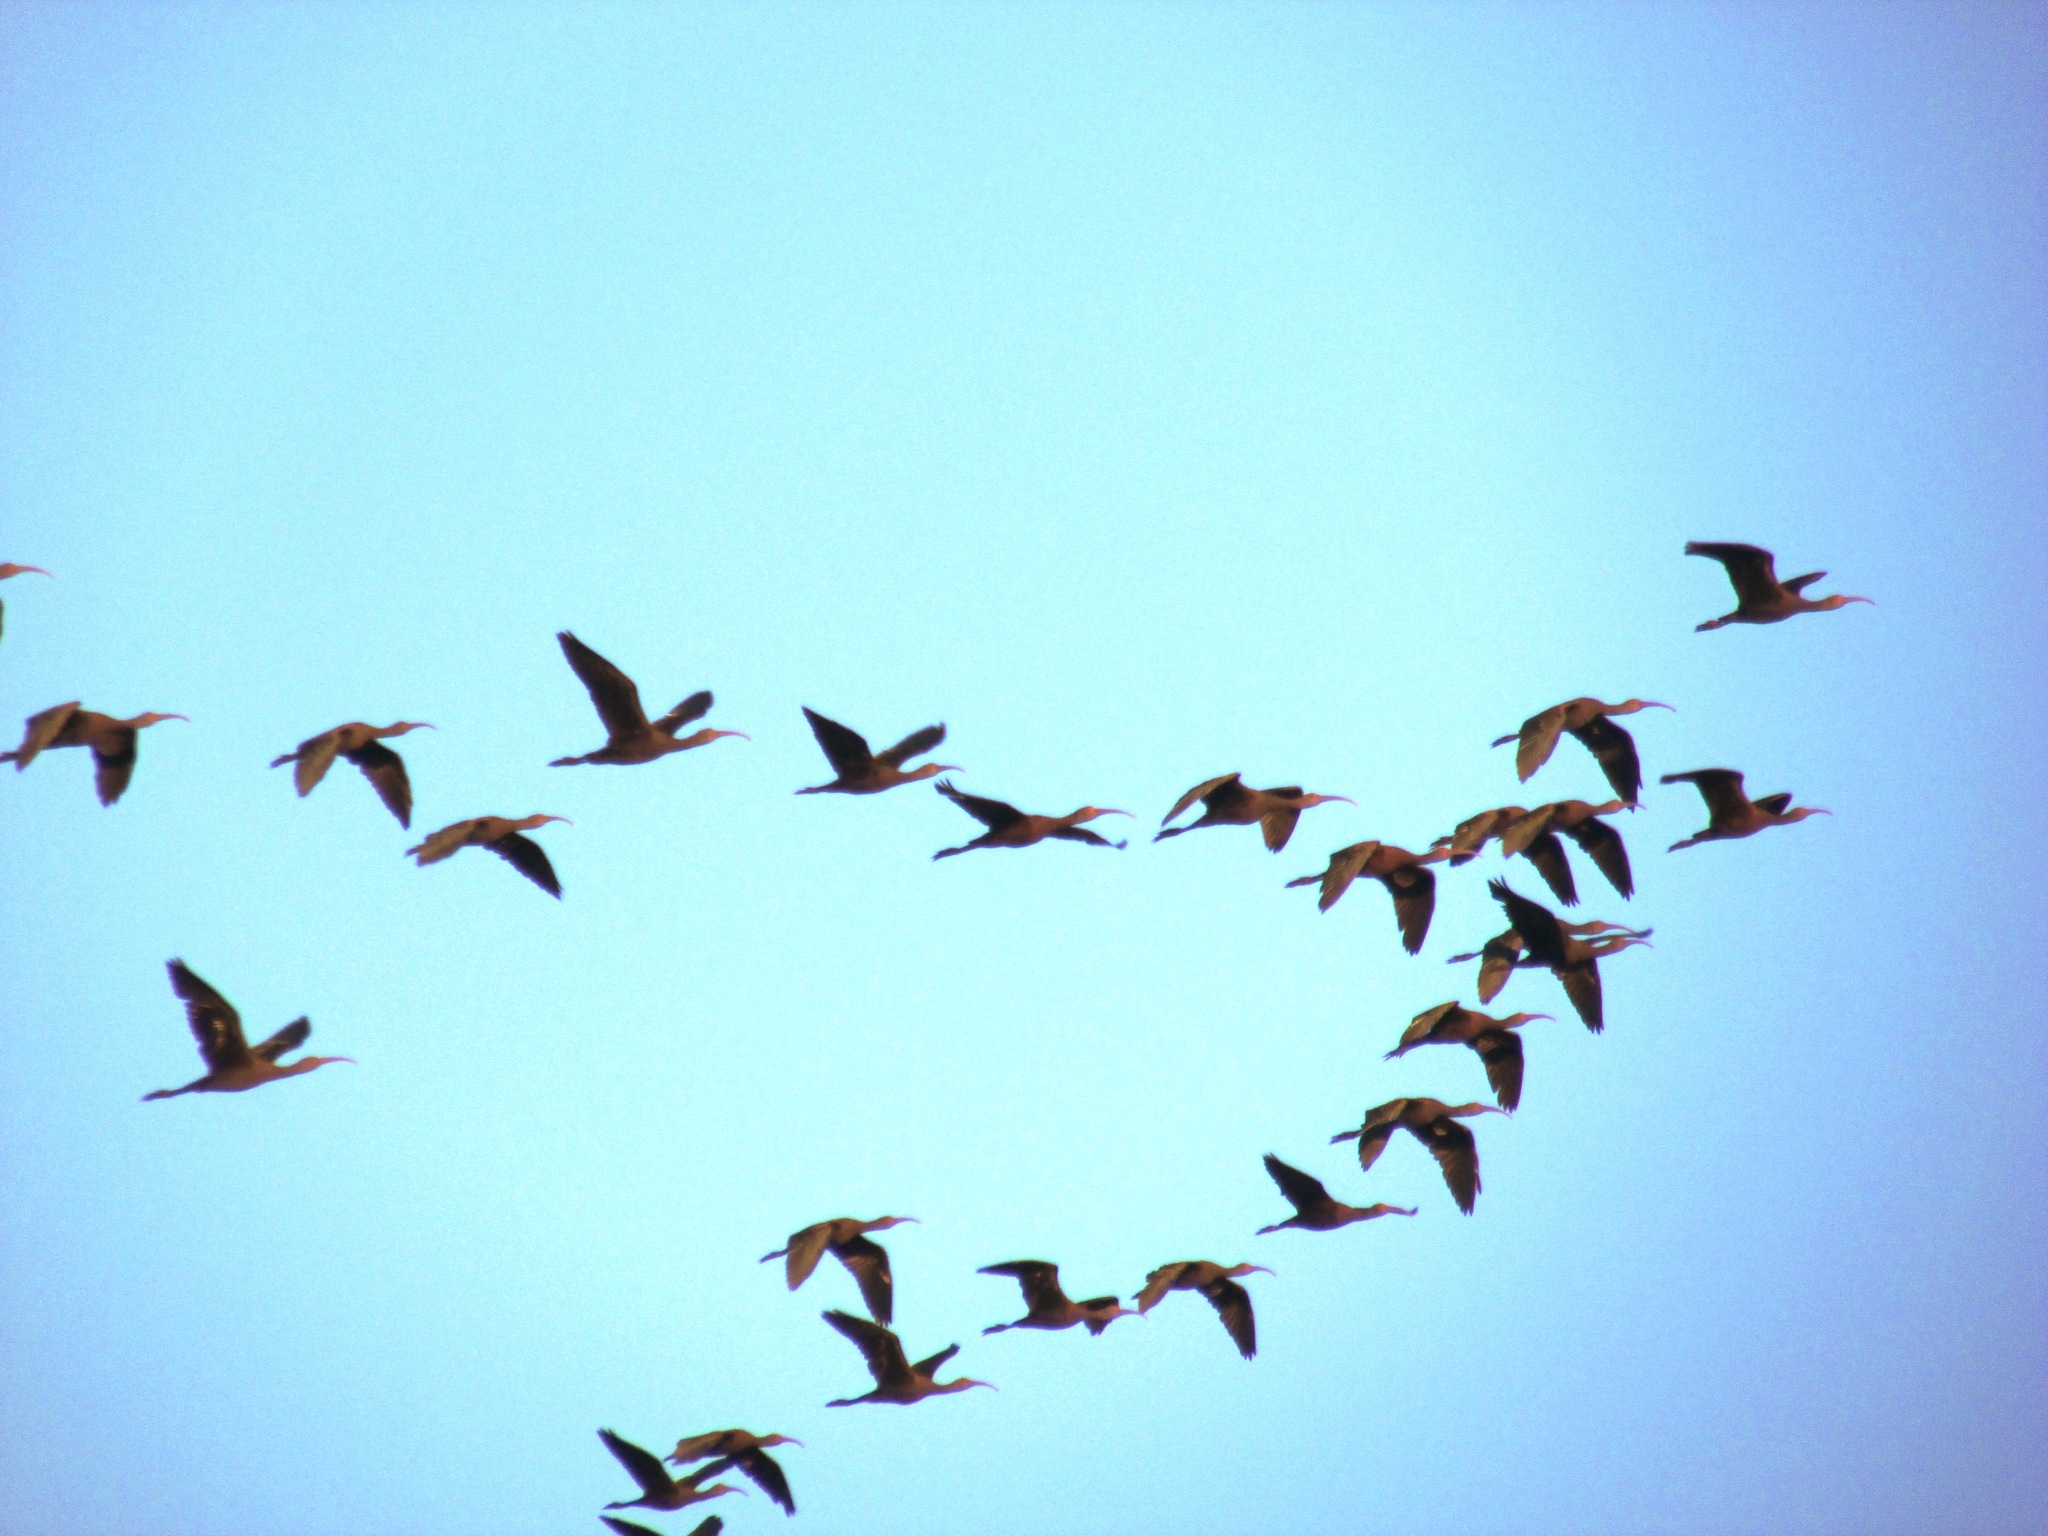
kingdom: Animalia
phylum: Chordata
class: Aves
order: Pelecaniformes
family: Threskiornithidae
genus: Plegadis
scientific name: Plegadis chihi
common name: White-faced ibis
